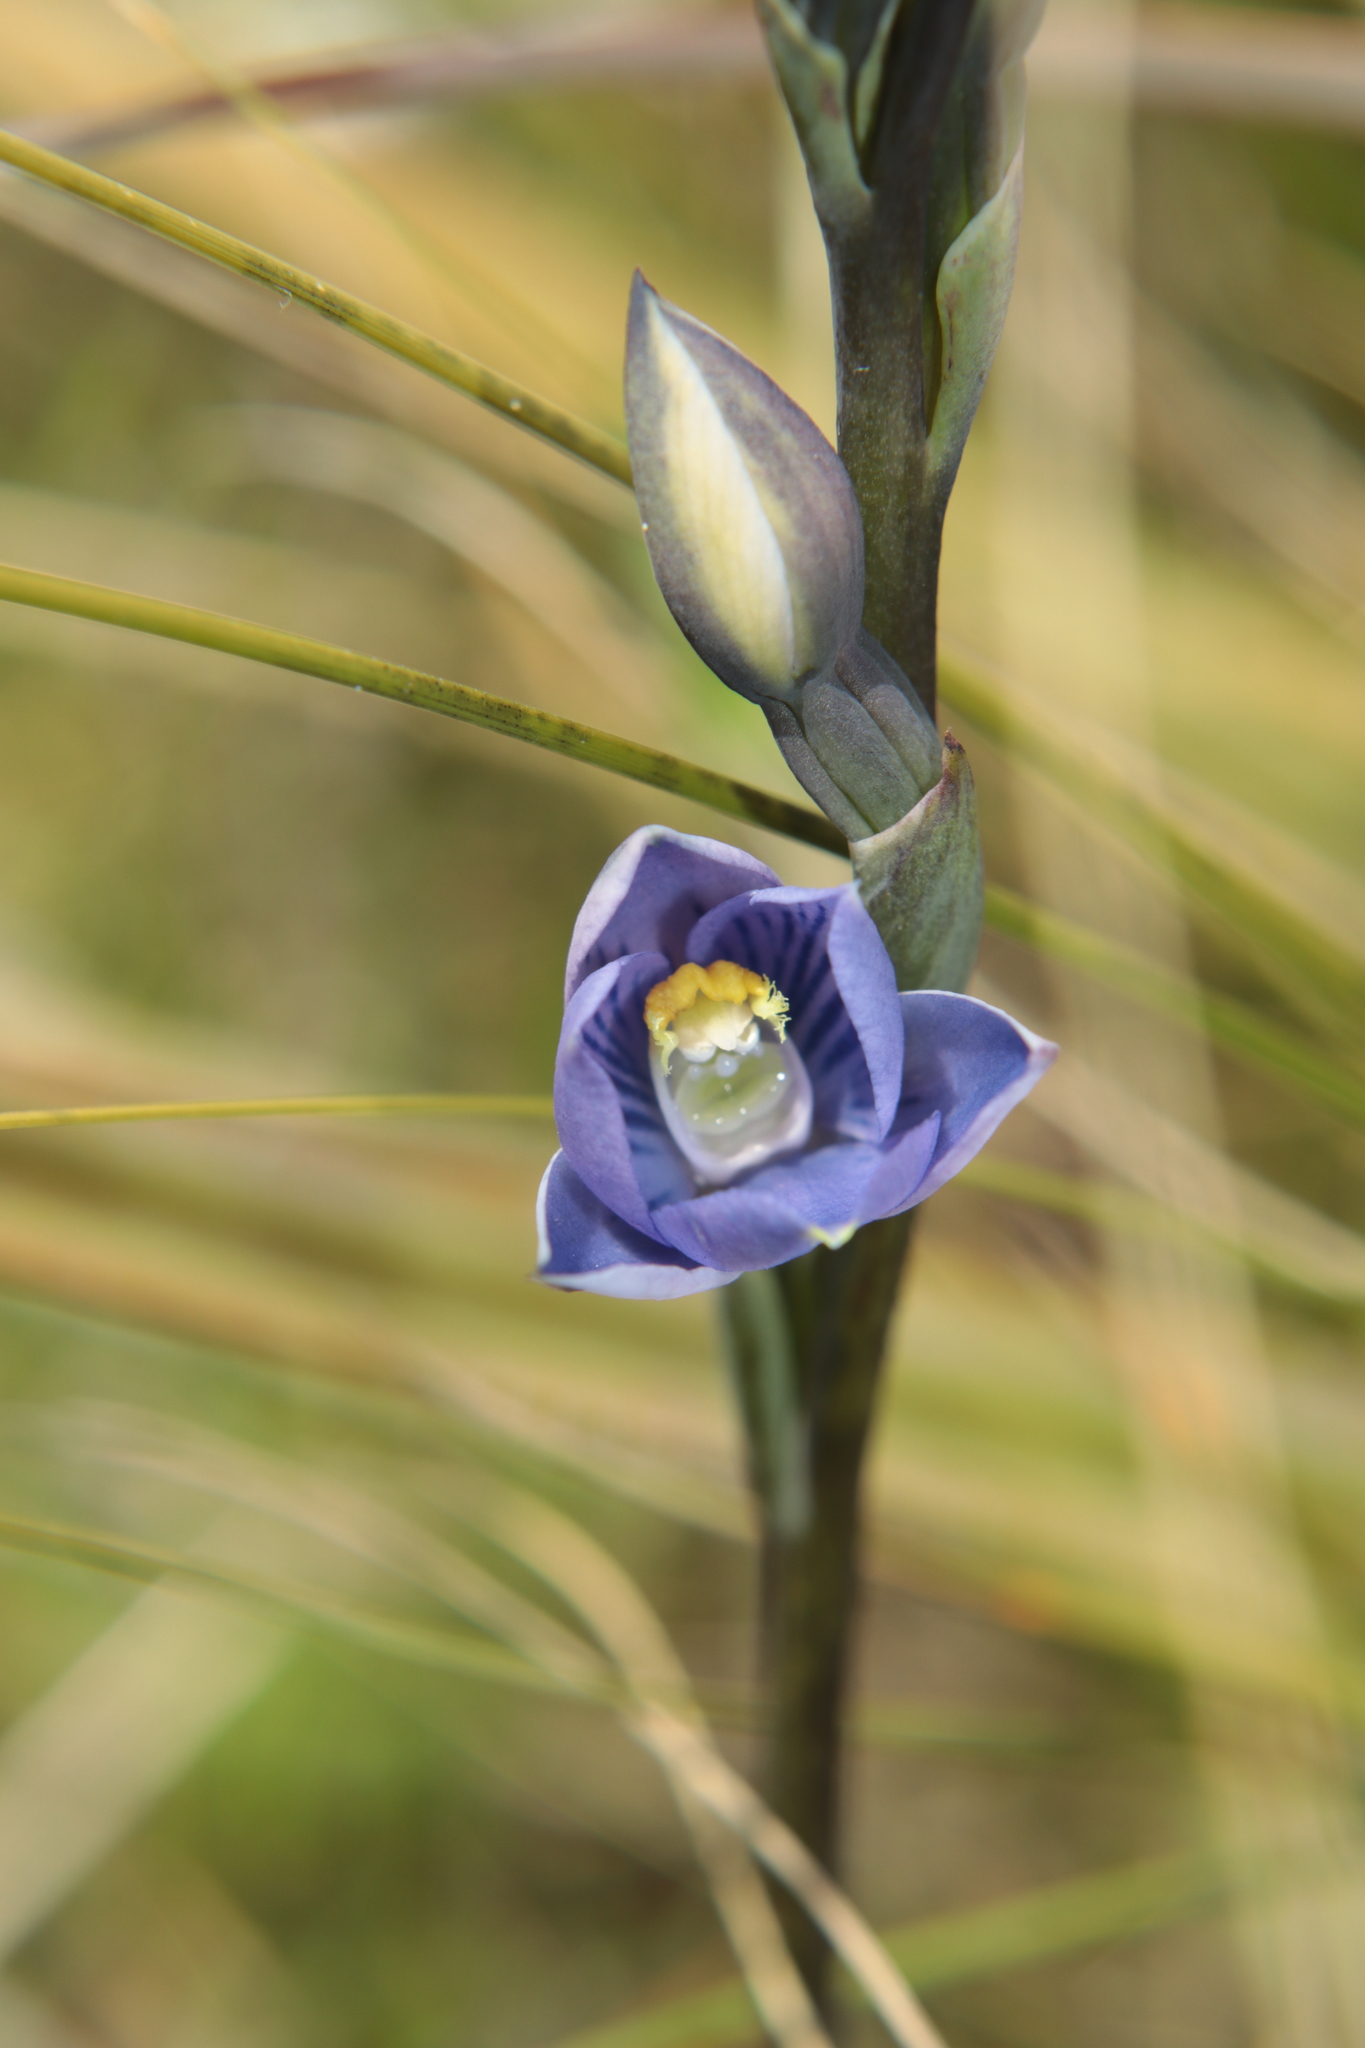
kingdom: Plantae
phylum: Tracheophyta
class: Liliopsida
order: Asparagales
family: Orchidaceae
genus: Thelymitra
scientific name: Thelymitra pulchella
